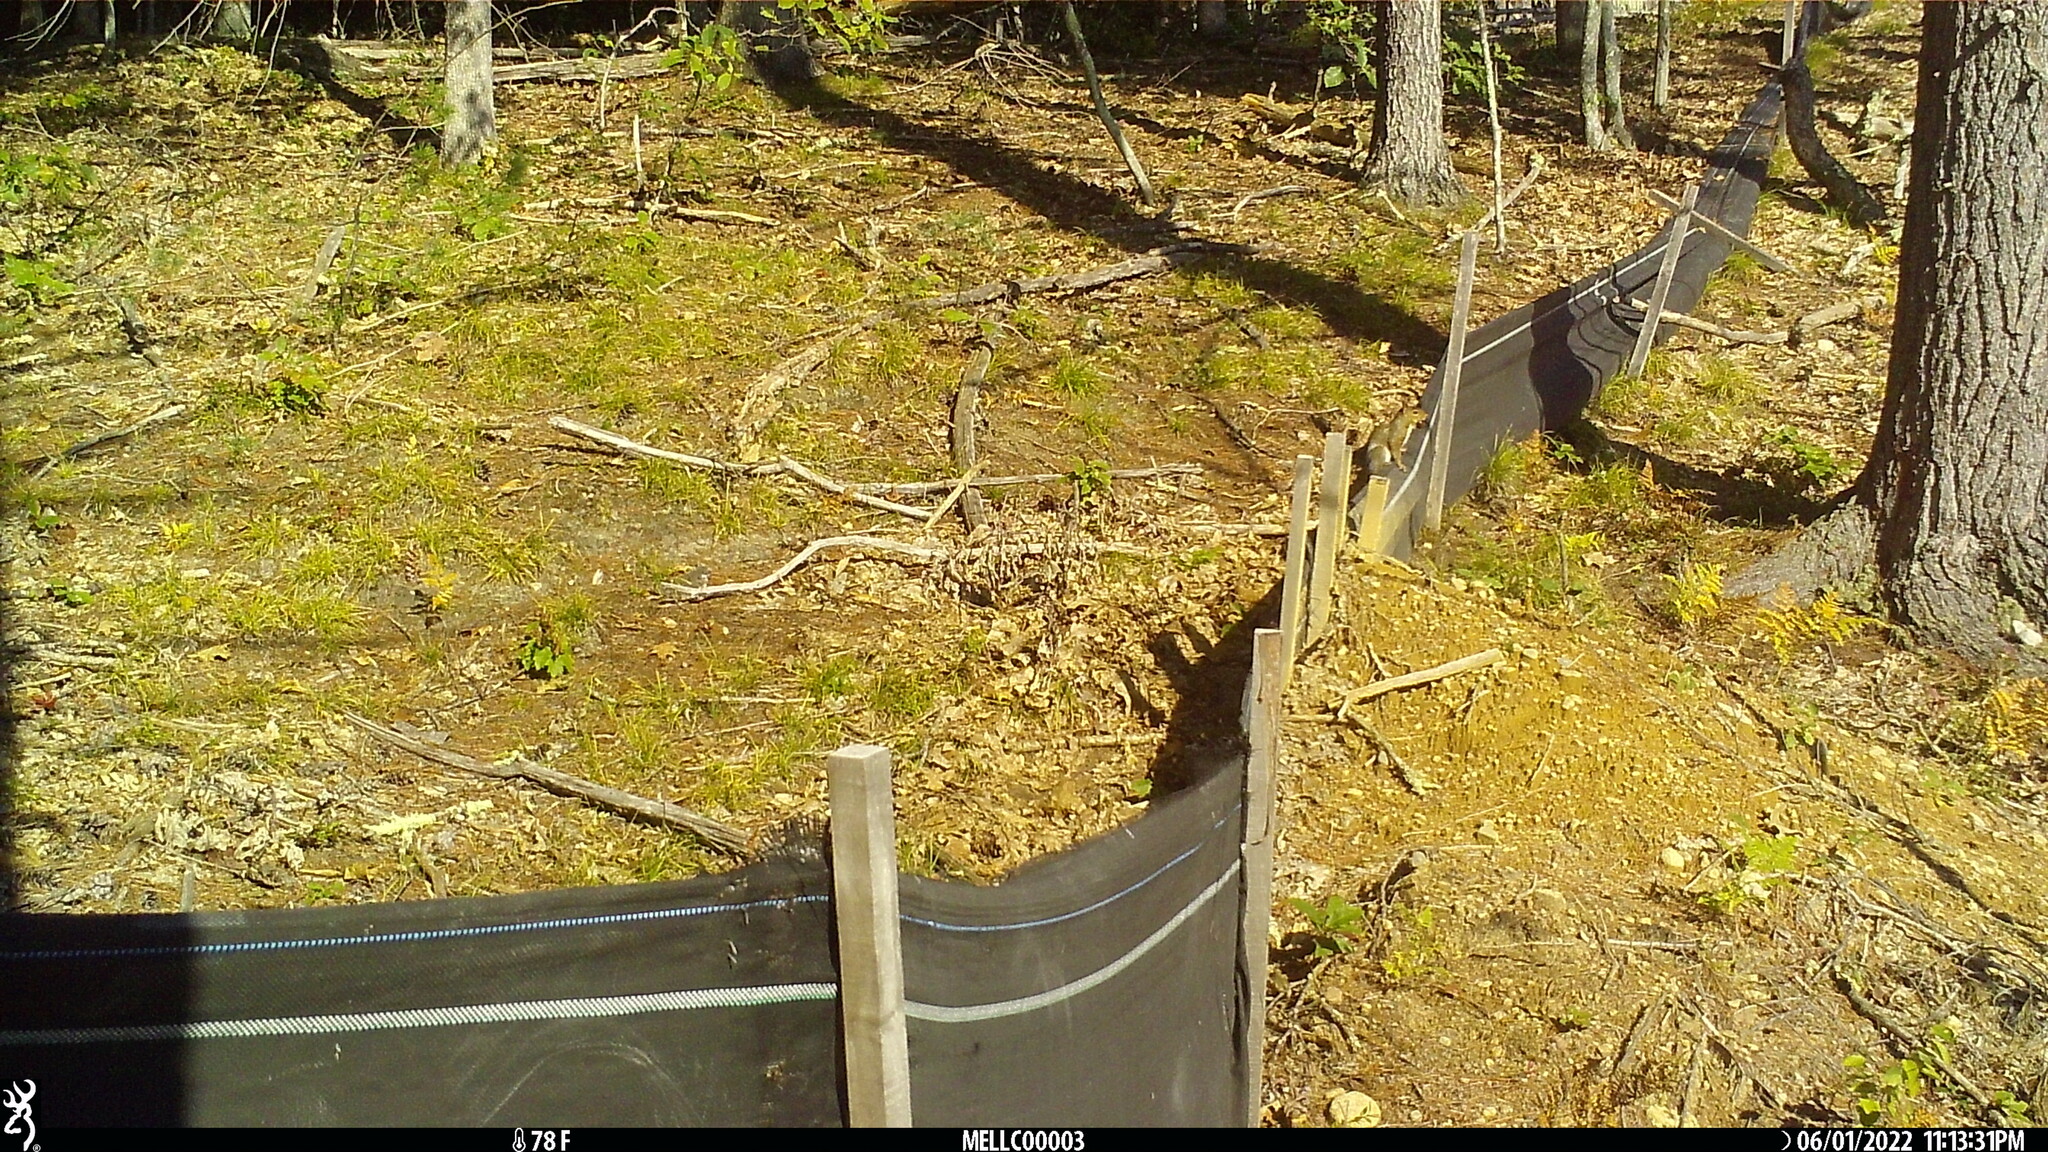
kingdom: Animalia
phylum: Chordata
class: Mammalia
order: Rodentia
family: Sciuridae
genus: Sciurus
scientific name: Sciurus carolinensis
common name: Eastern gray squirrel
